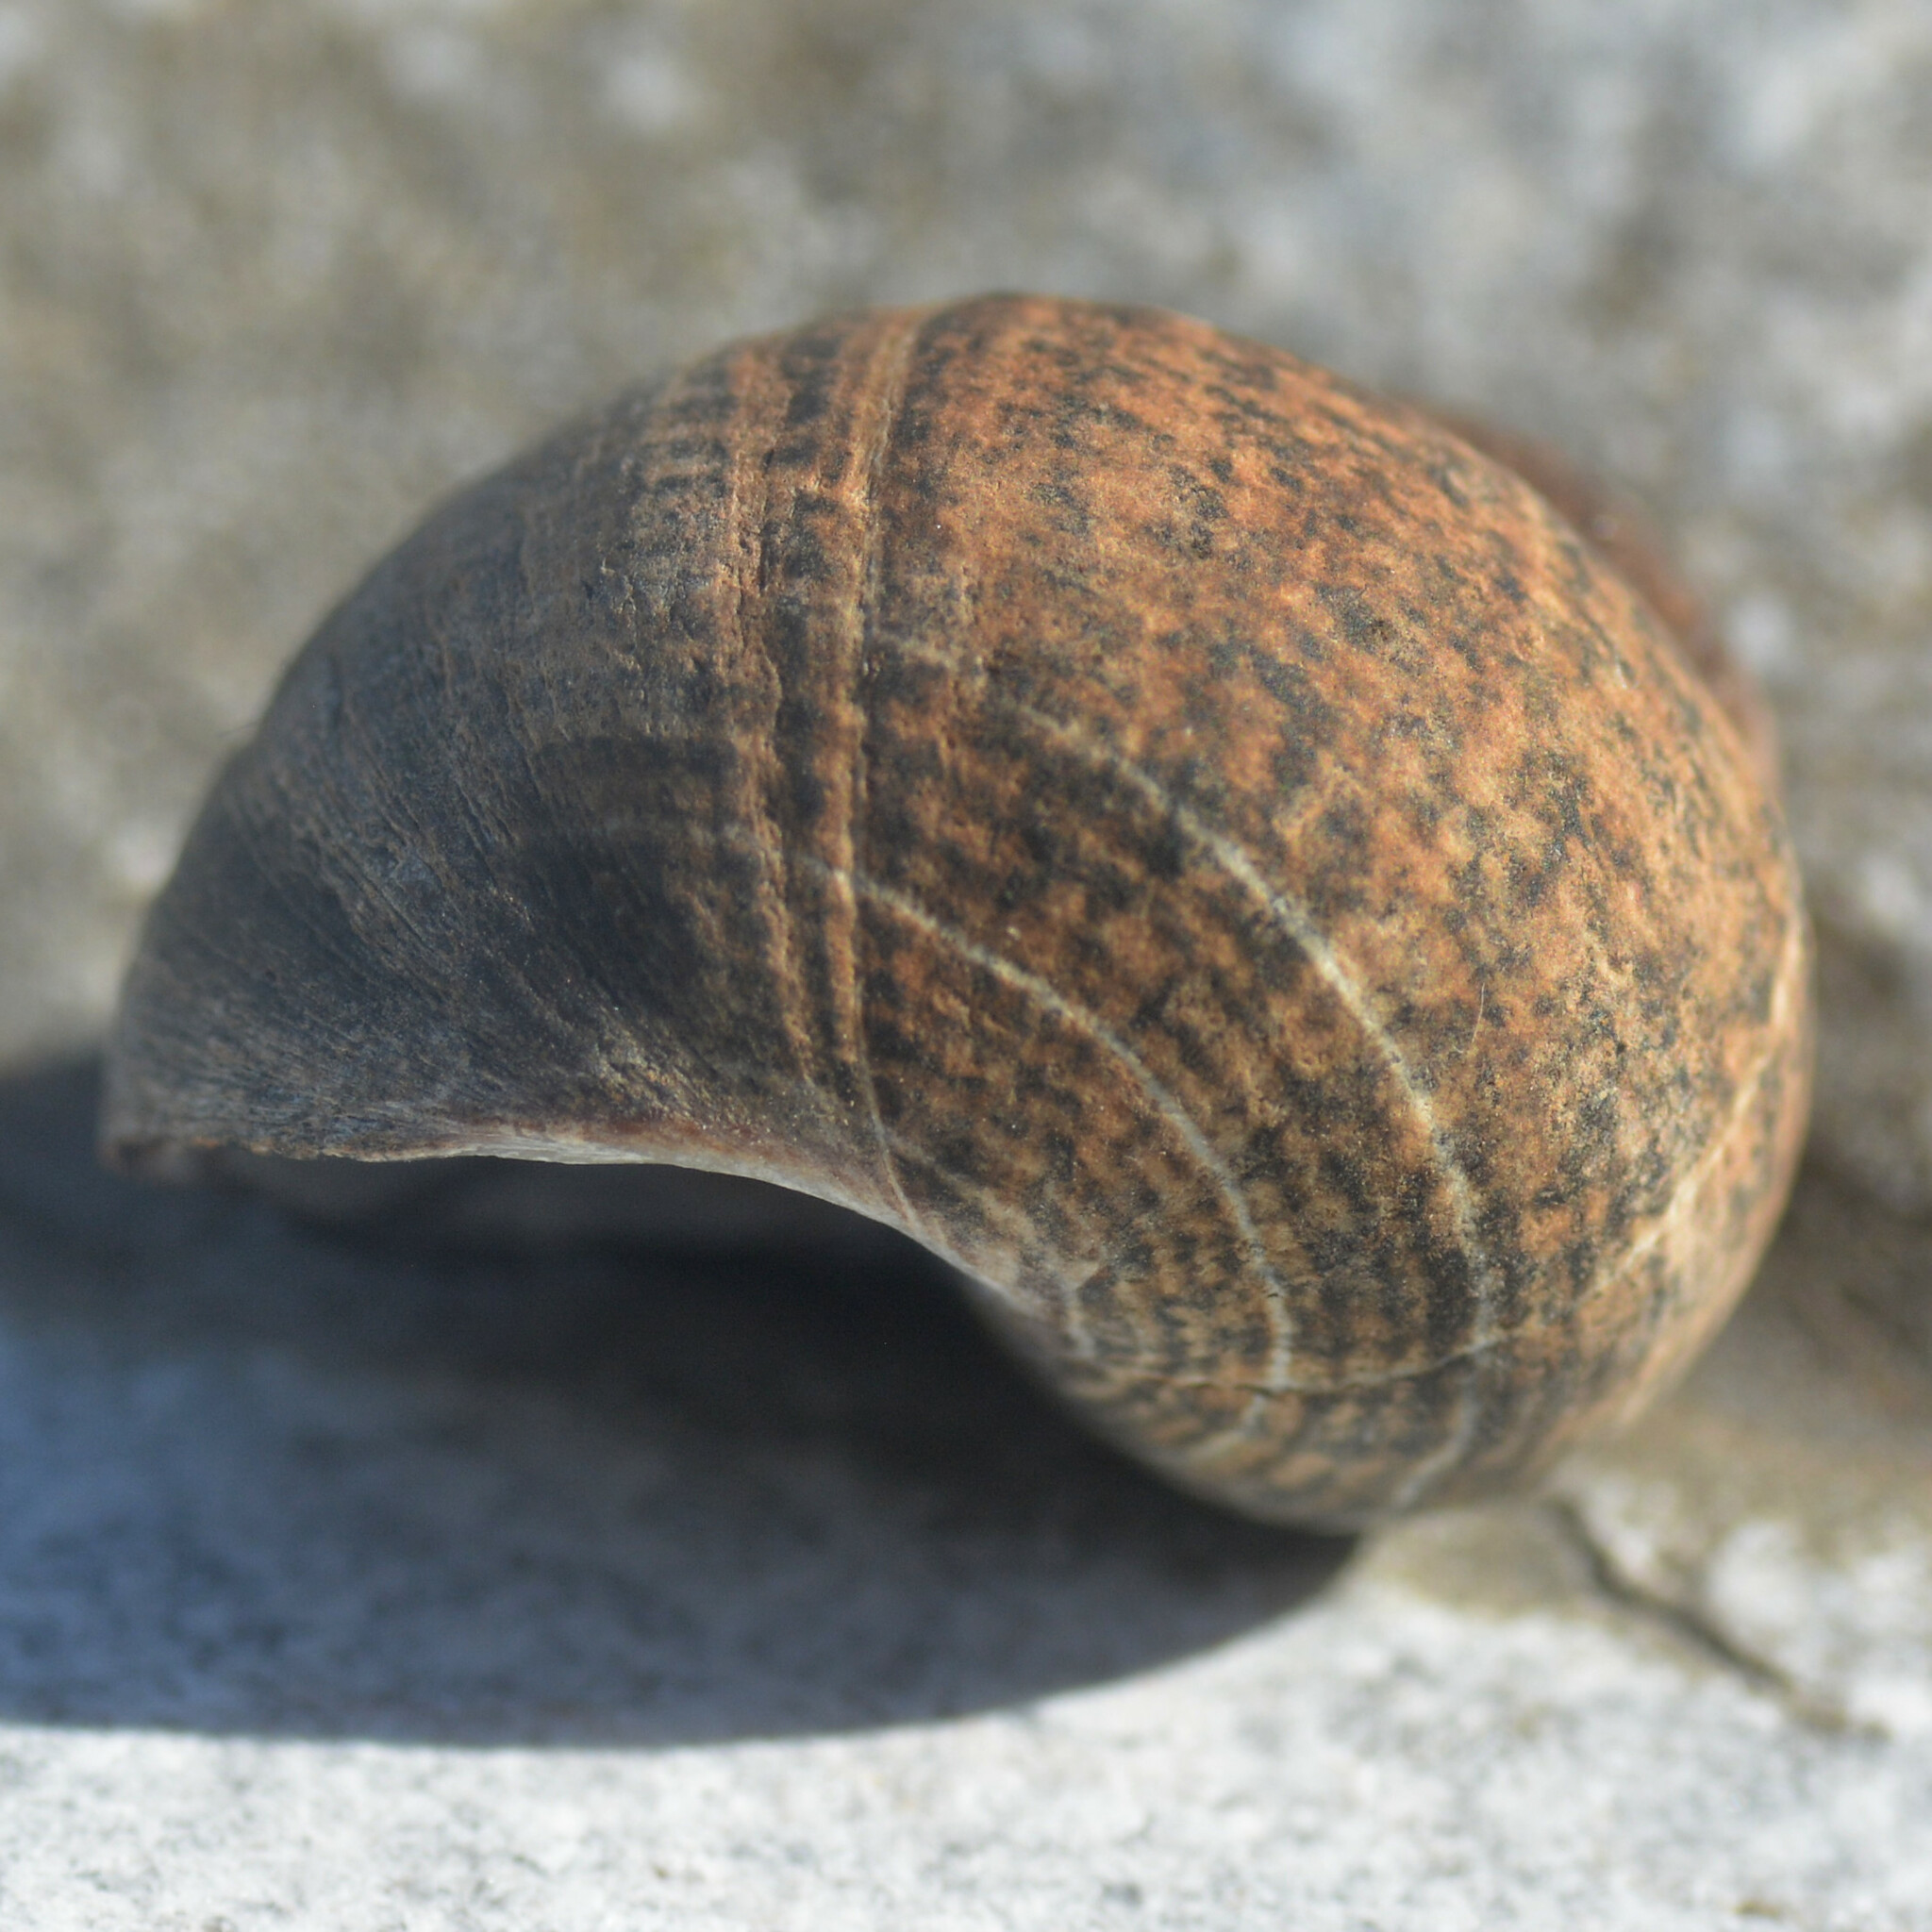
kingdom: Animalia
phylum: Mollusca
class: Gastropoda
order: Littorinimorpha
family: Littorinidae
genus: Littorina
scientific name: Littorina littorea
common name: Common periwinkle
